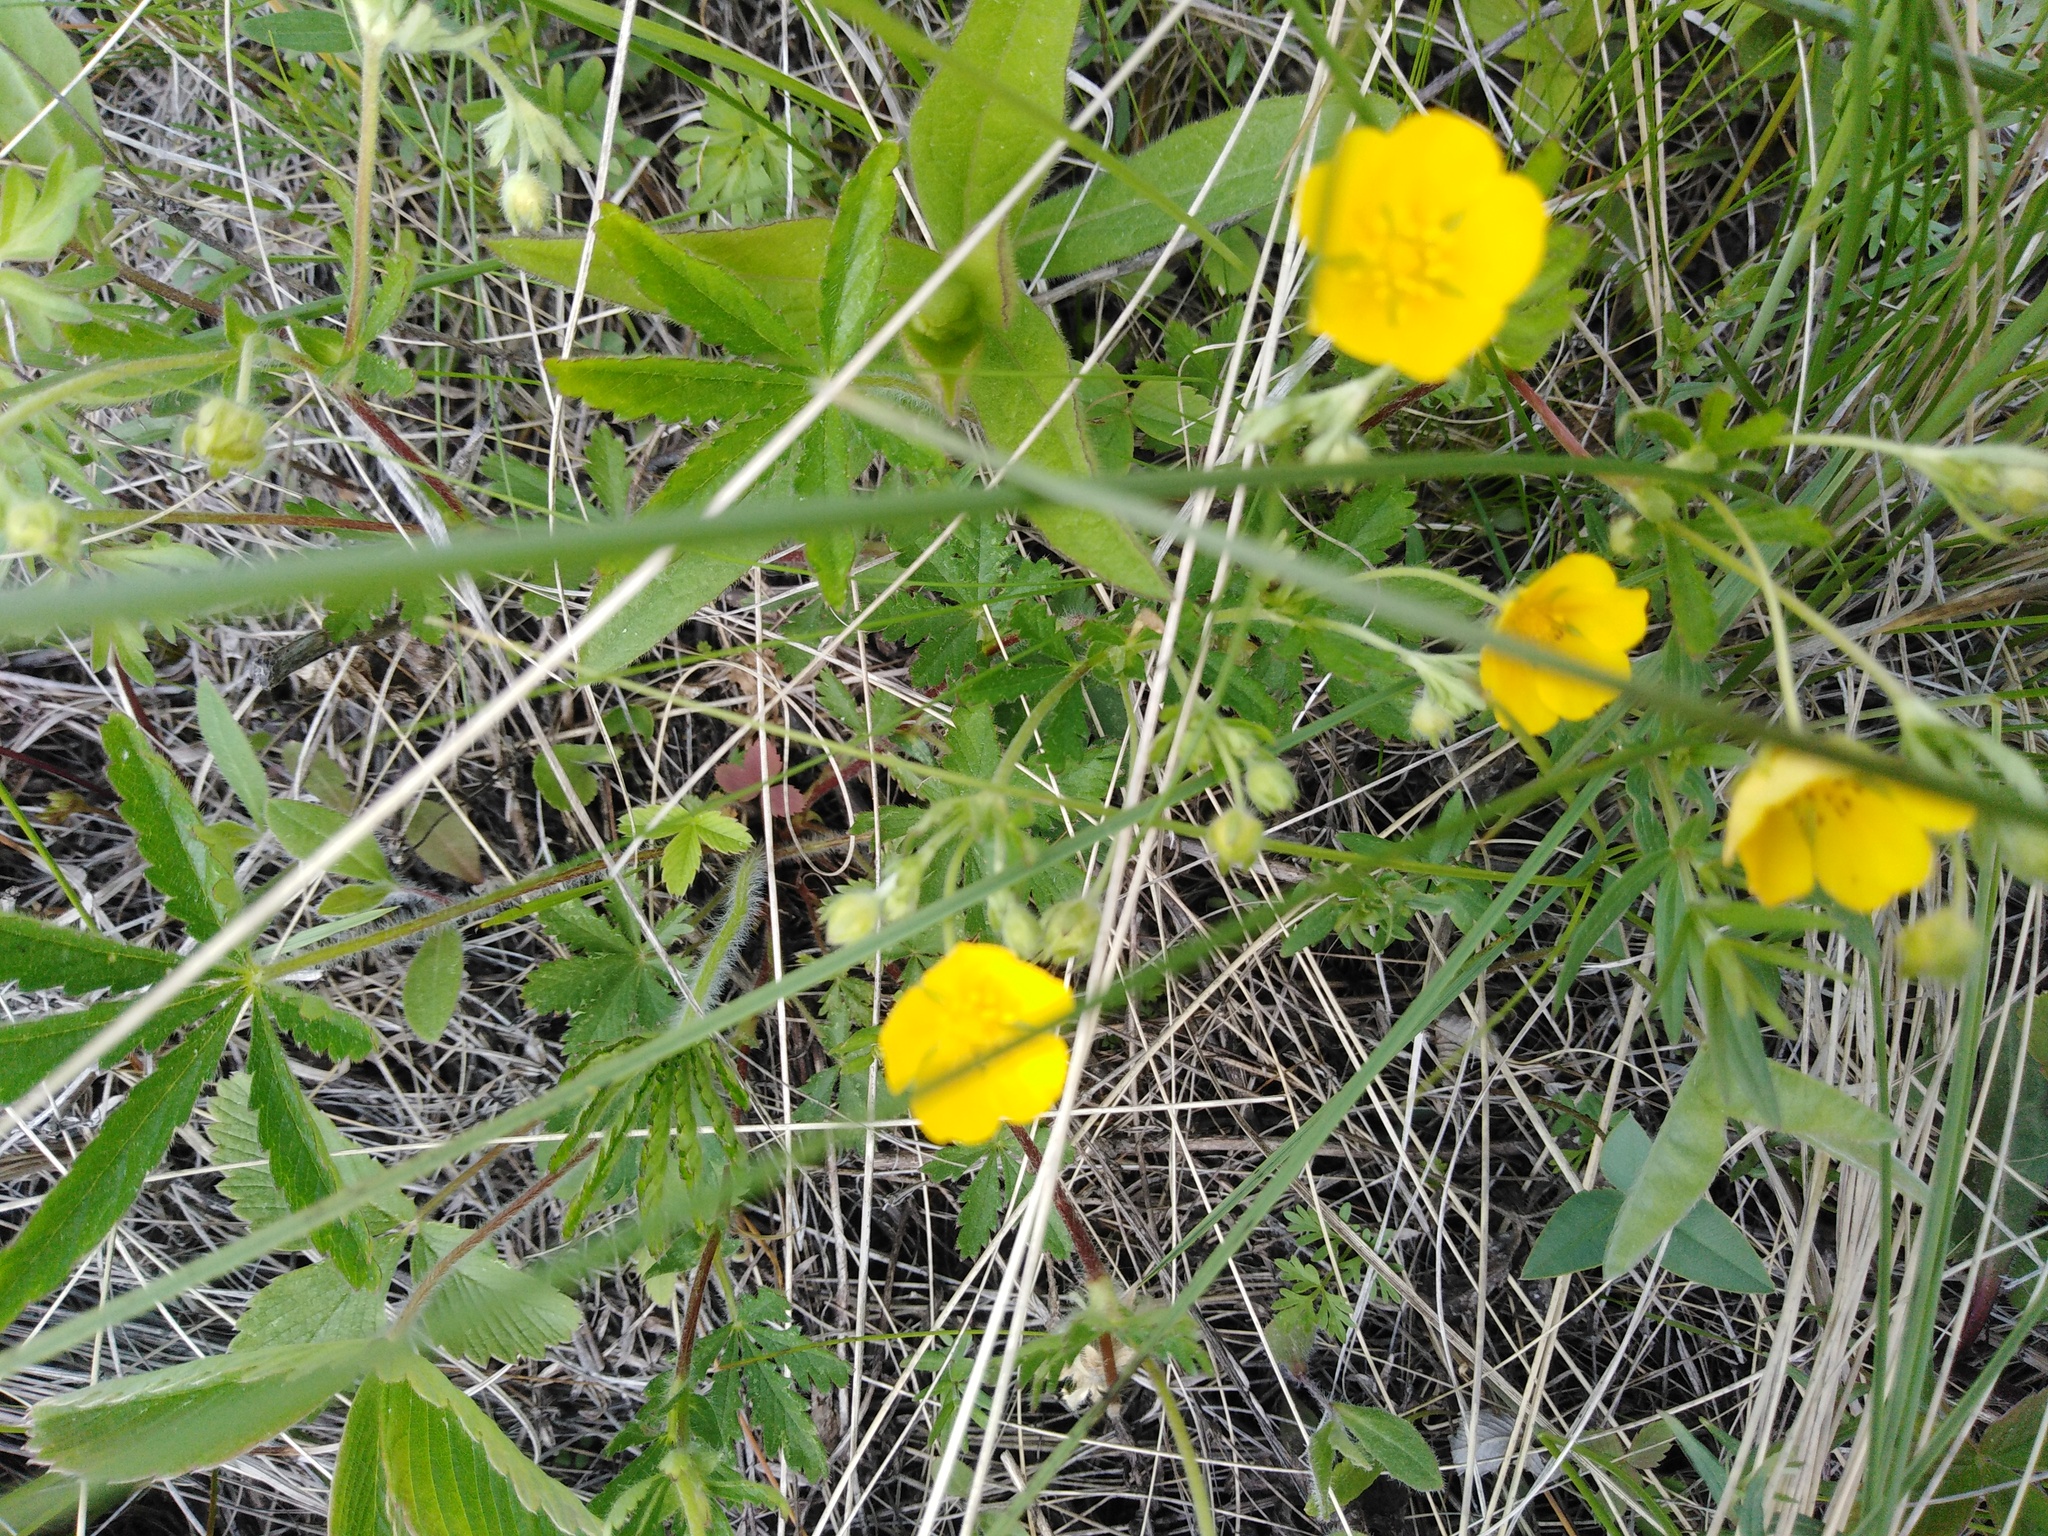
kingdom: Plantae
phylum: Tracheophyta
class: Magnoliopsida
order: Rosales
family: Rosaceae
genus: Potentilla
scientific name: Potentilla thuringiaca
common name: European cinquefoil
